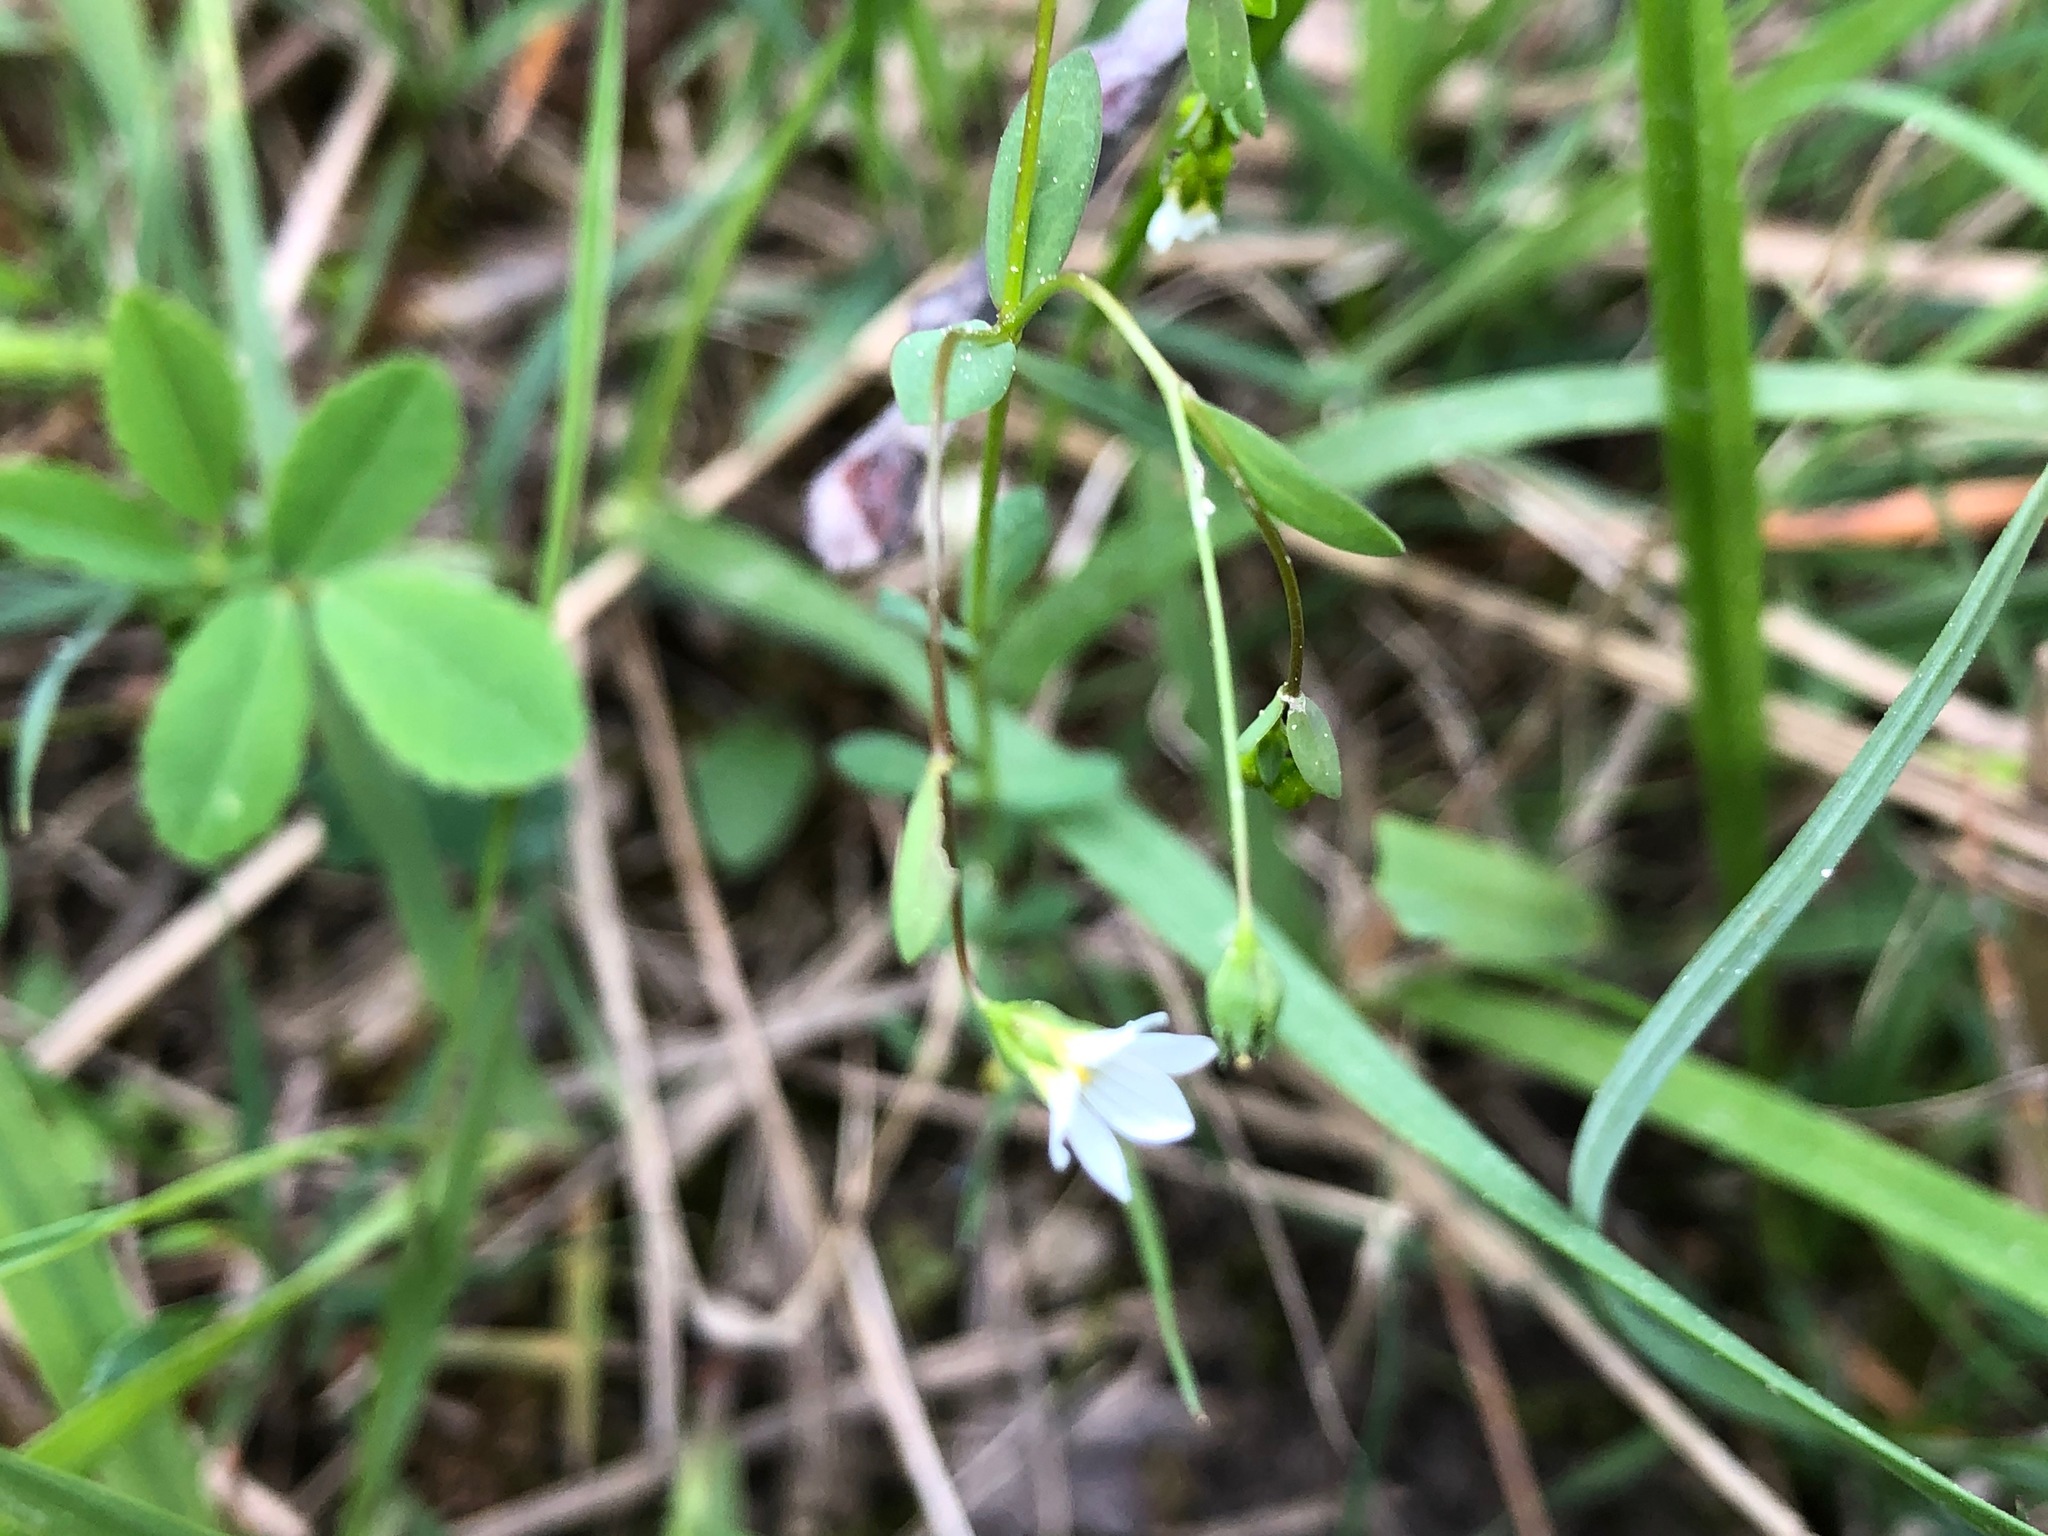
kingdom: Plantae
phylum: Tracheophyta
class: Magnoliopsida
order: Malpighiales
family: Linaceae
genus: Linum
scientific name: Linum catharticum
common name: Fairy flax
